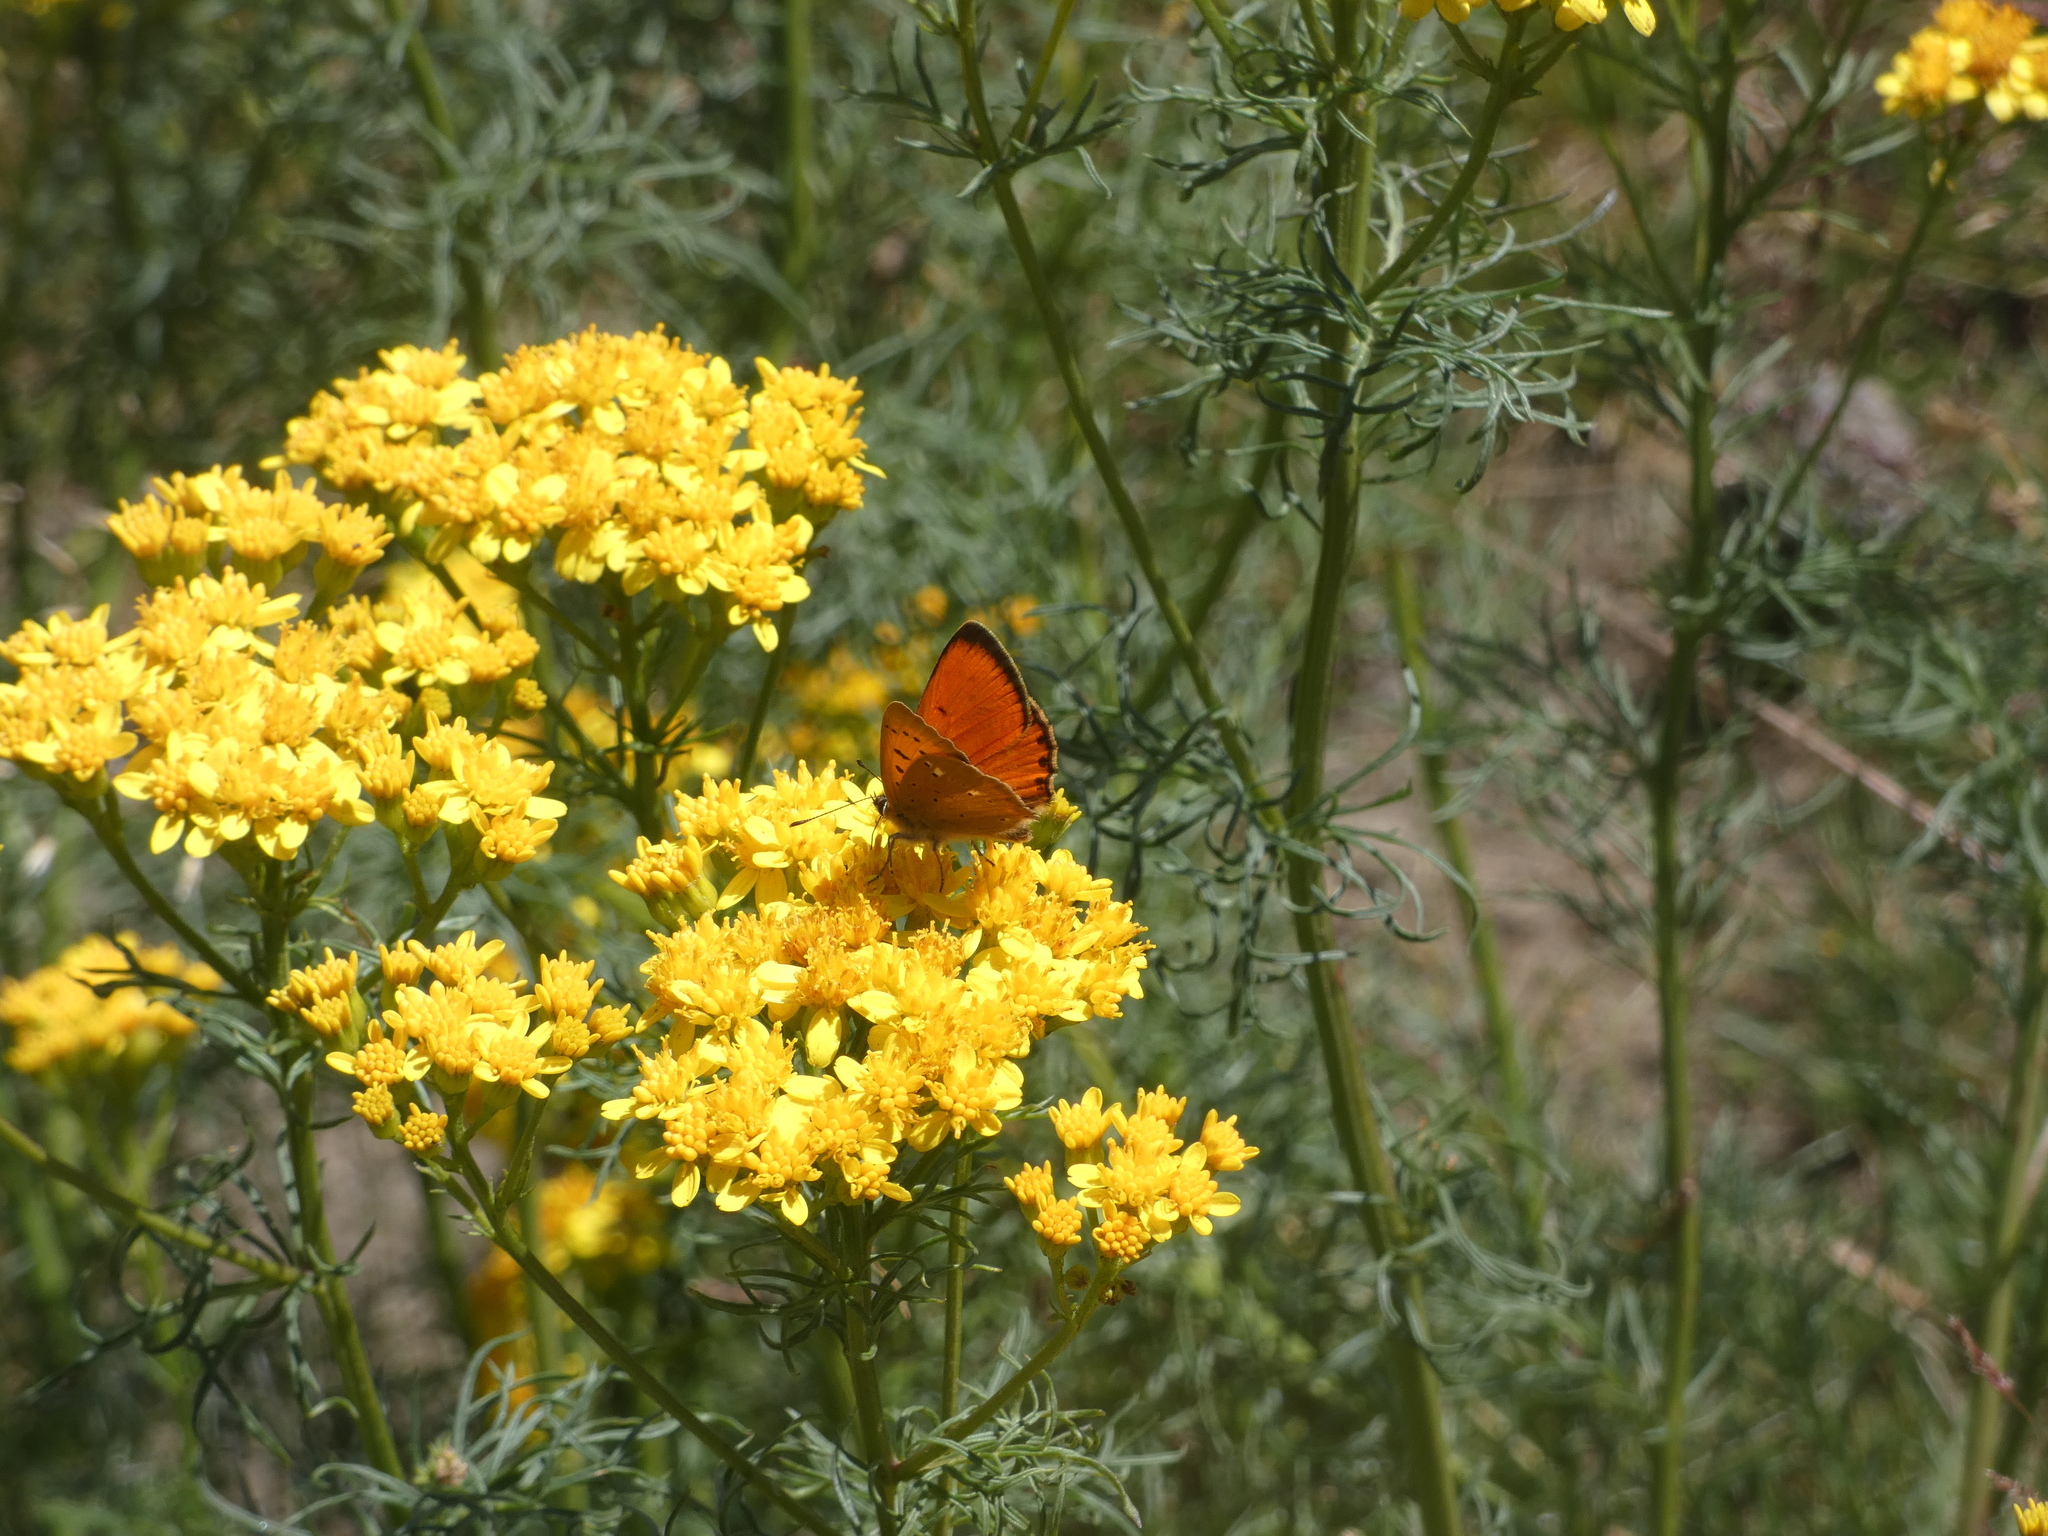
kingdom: Animalia
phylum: Arthropoda
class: Insecta
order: Lepidoptera
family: Lycaenidae
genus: Lycaena
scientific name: Lycaena virgaureae
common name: Scarce copper
